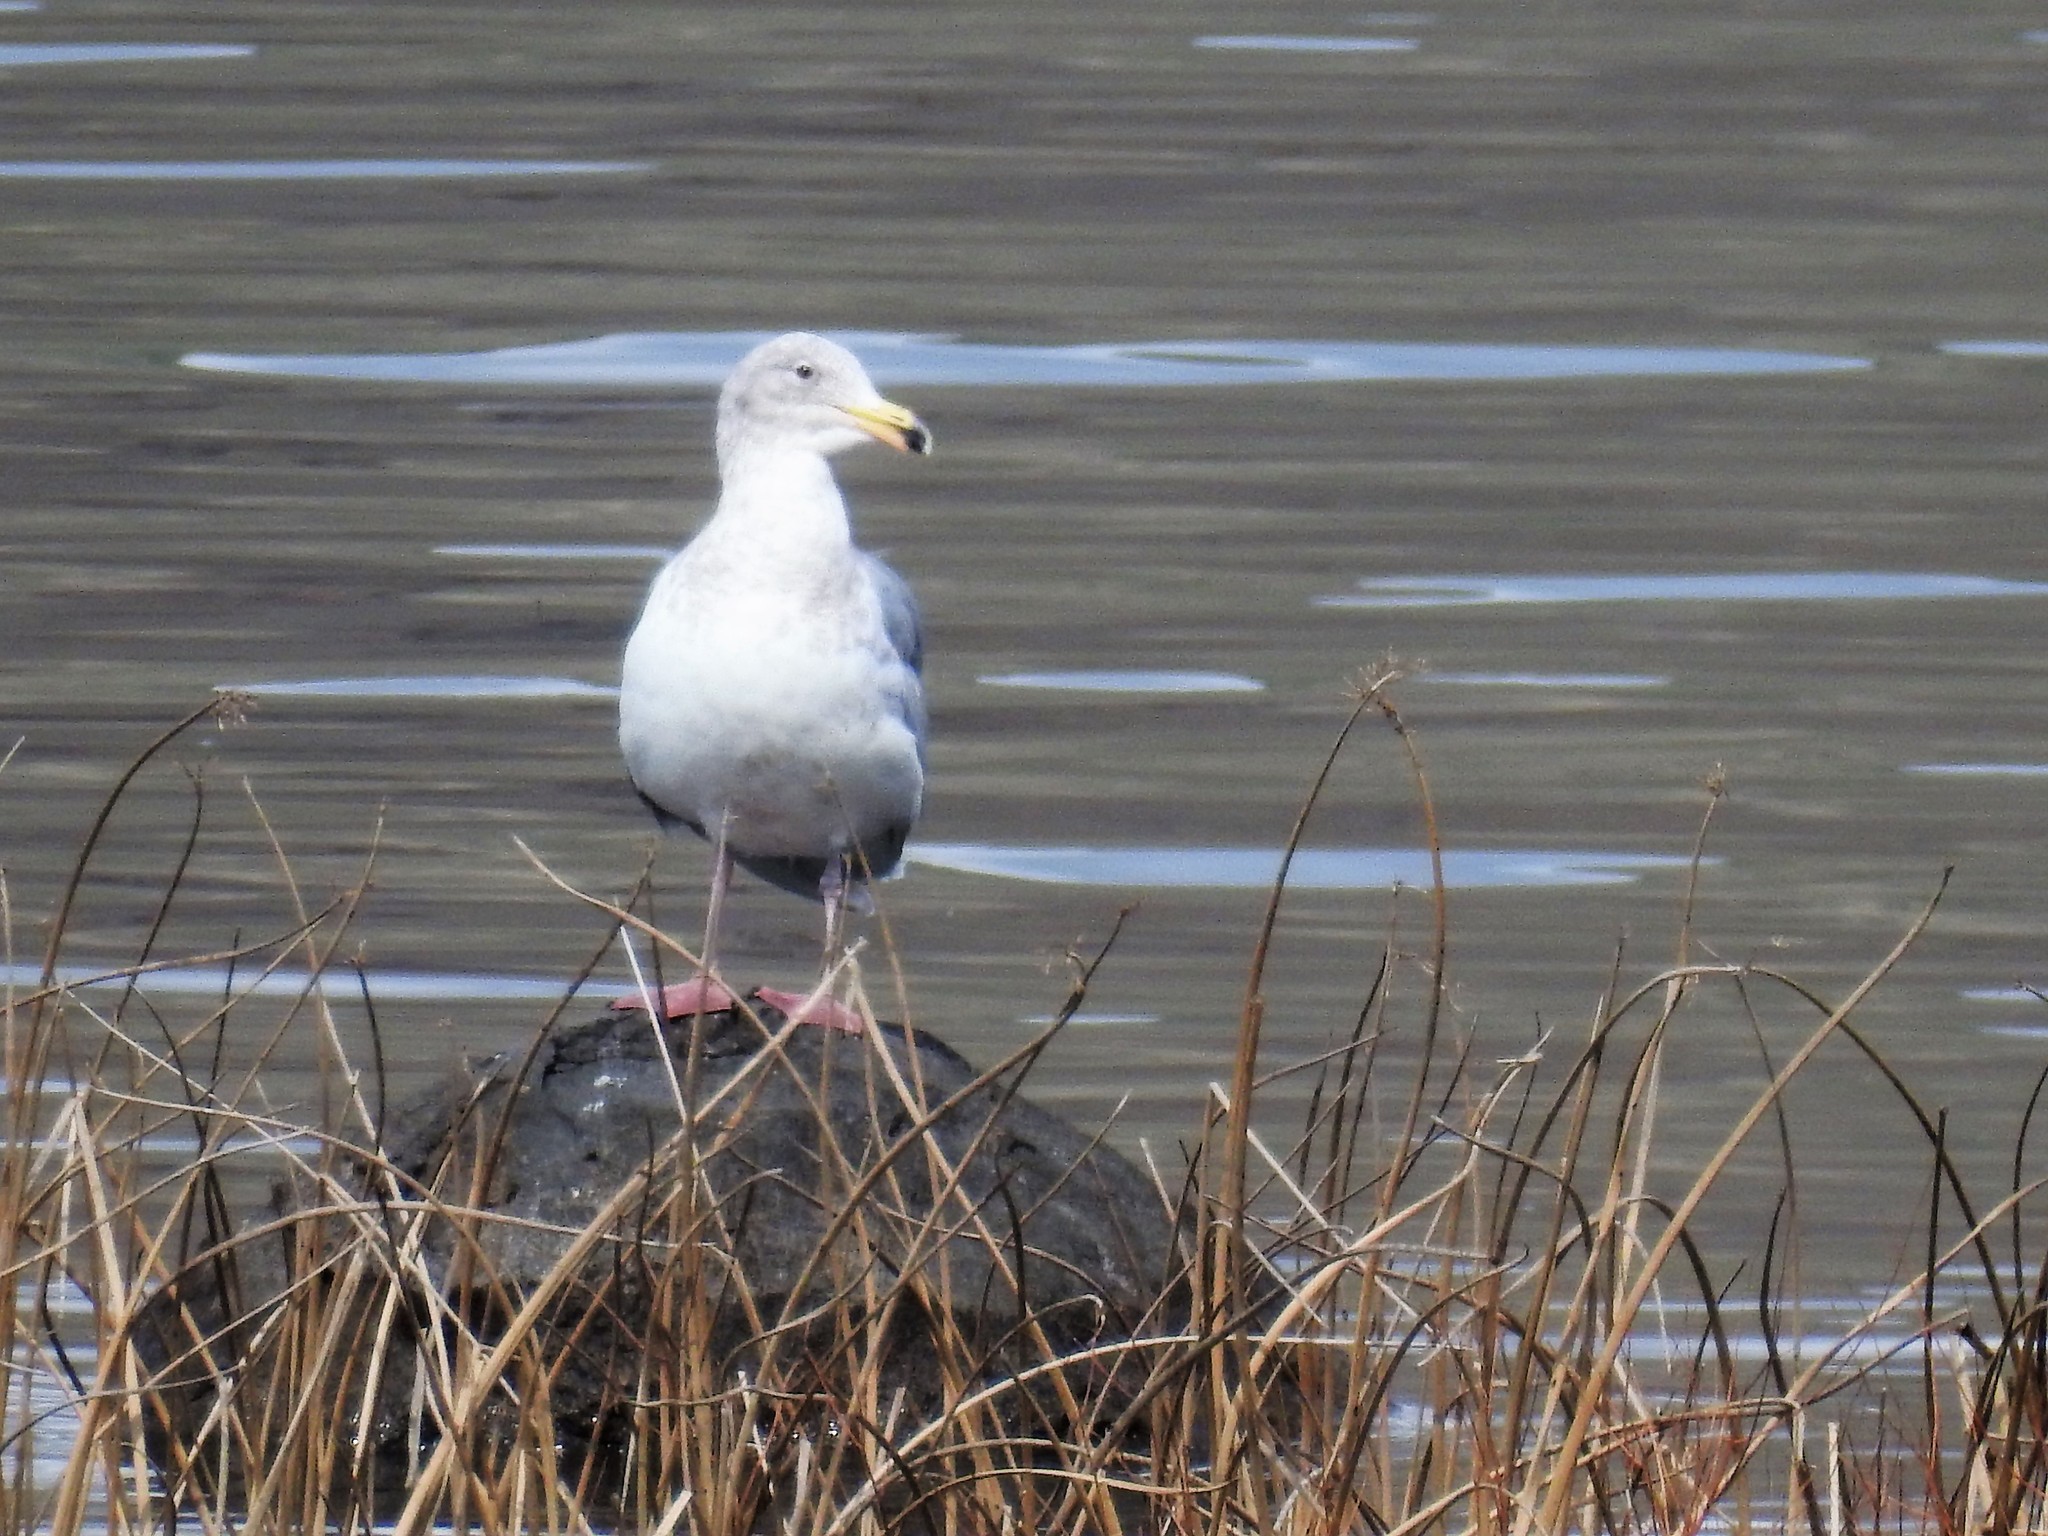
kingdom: Animalia
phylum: Chordata
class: Aves
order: Charadriiformes
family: Laridae
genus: Larus
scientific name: Larus glaucescens
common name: Glaucous-winged gull
